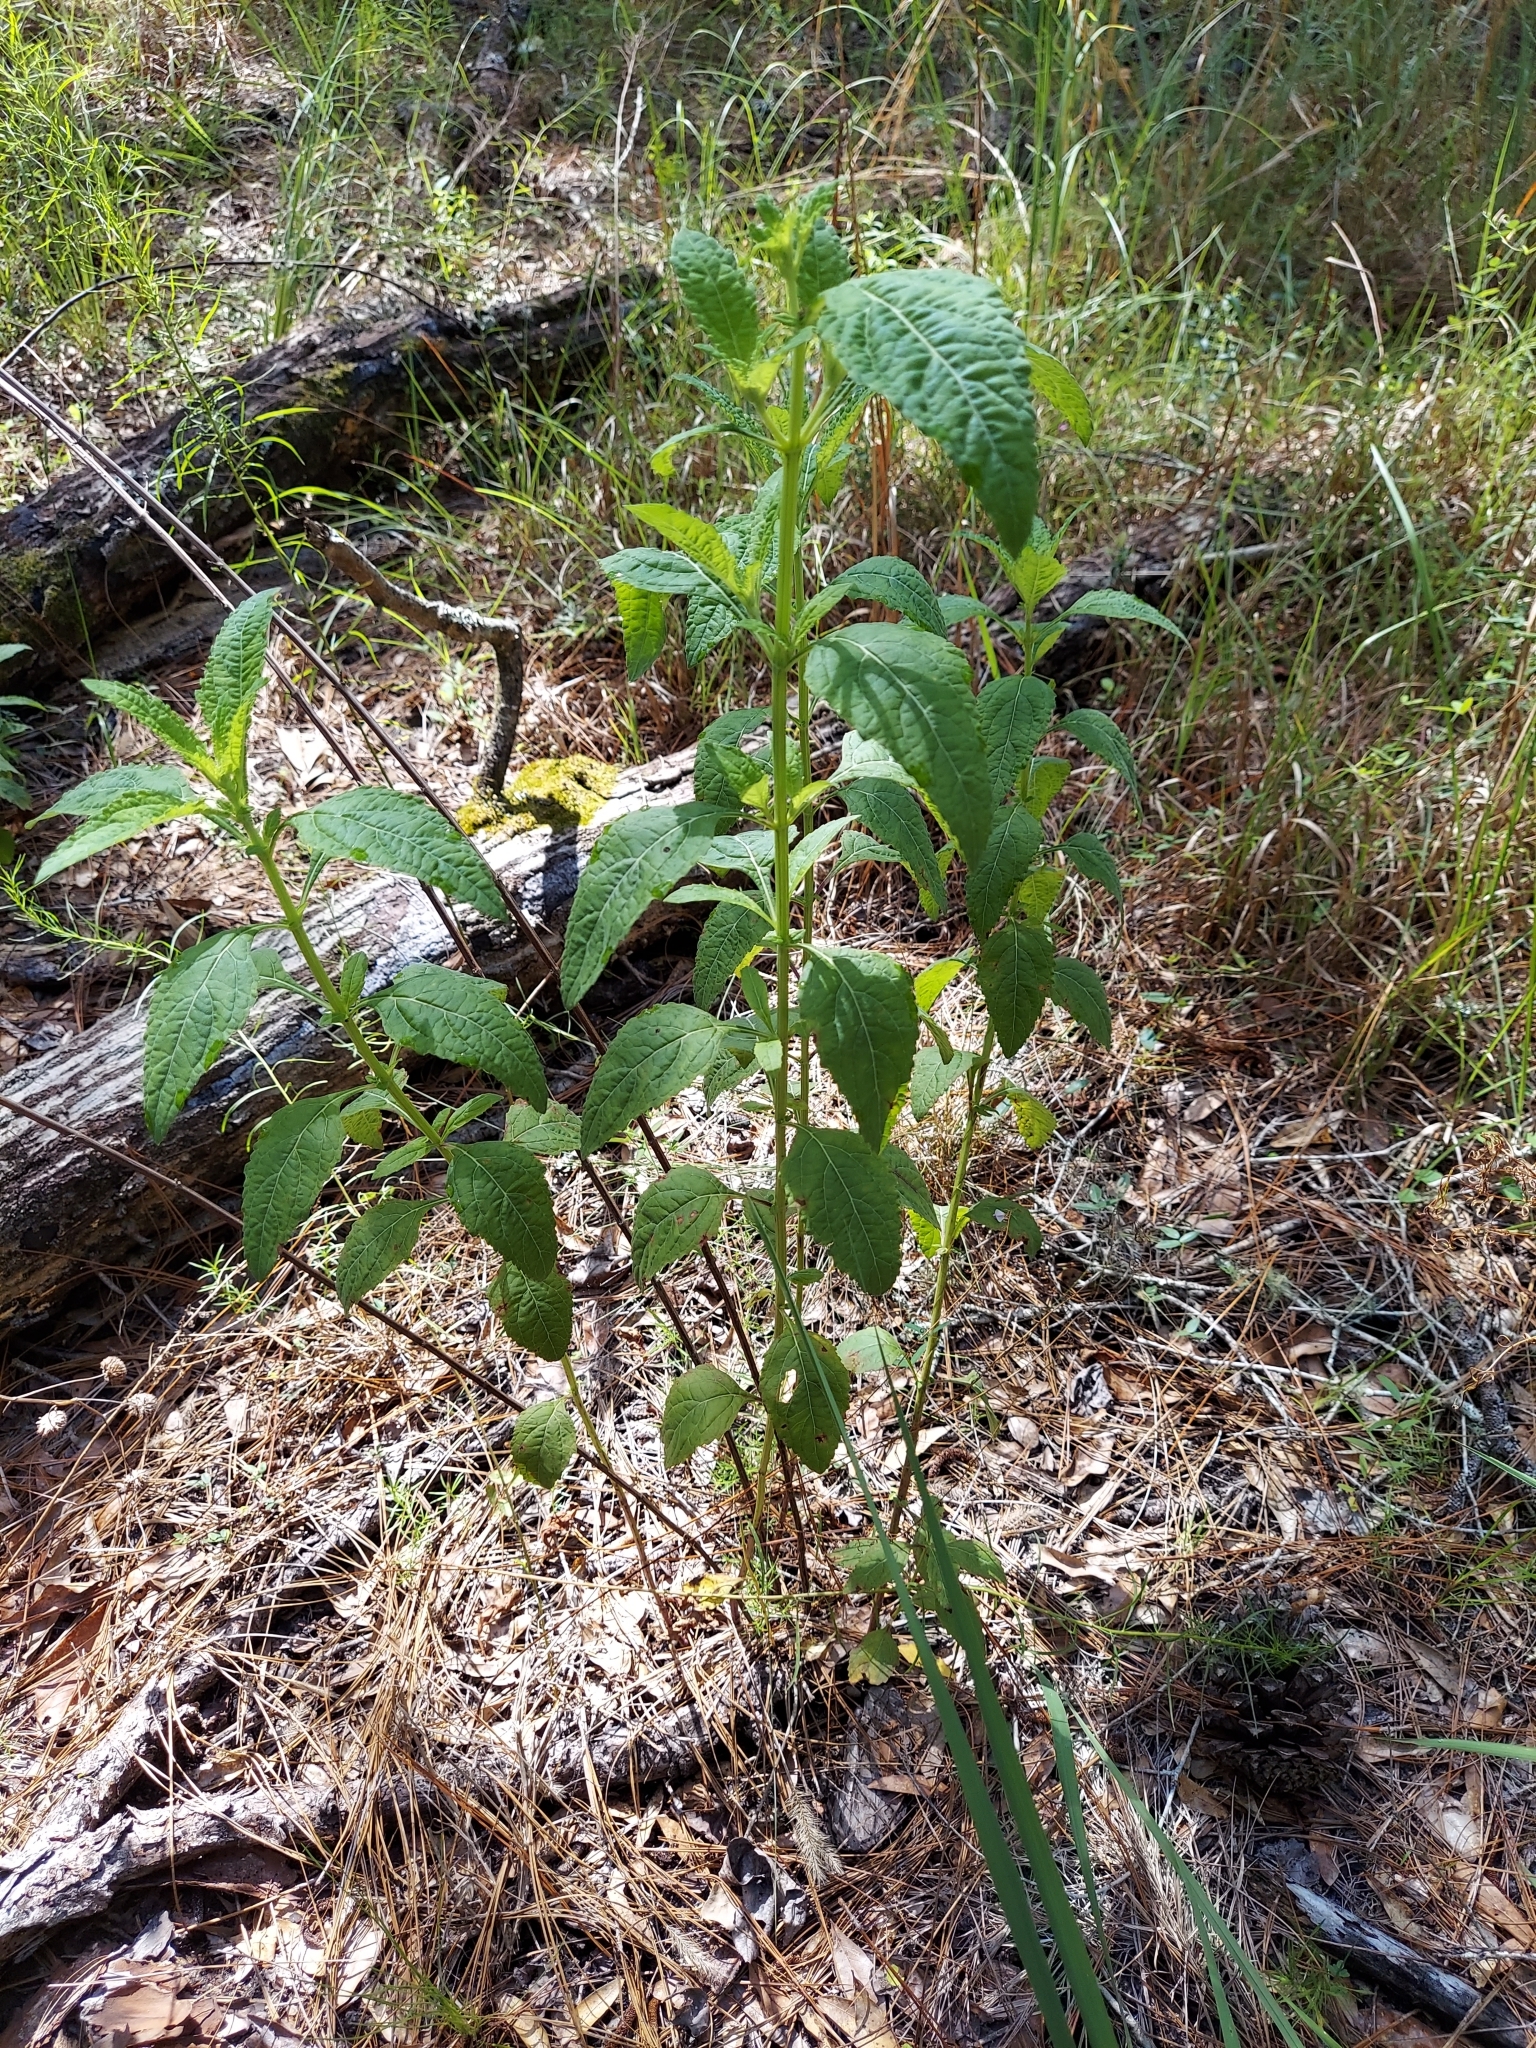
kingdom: Plantae
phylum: Tracheophyta
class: Magnoliopsida
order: Lamiales
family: Lamiaceae
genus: Hyptis
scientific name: Hyptis alata
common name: Cluster bush-mint
